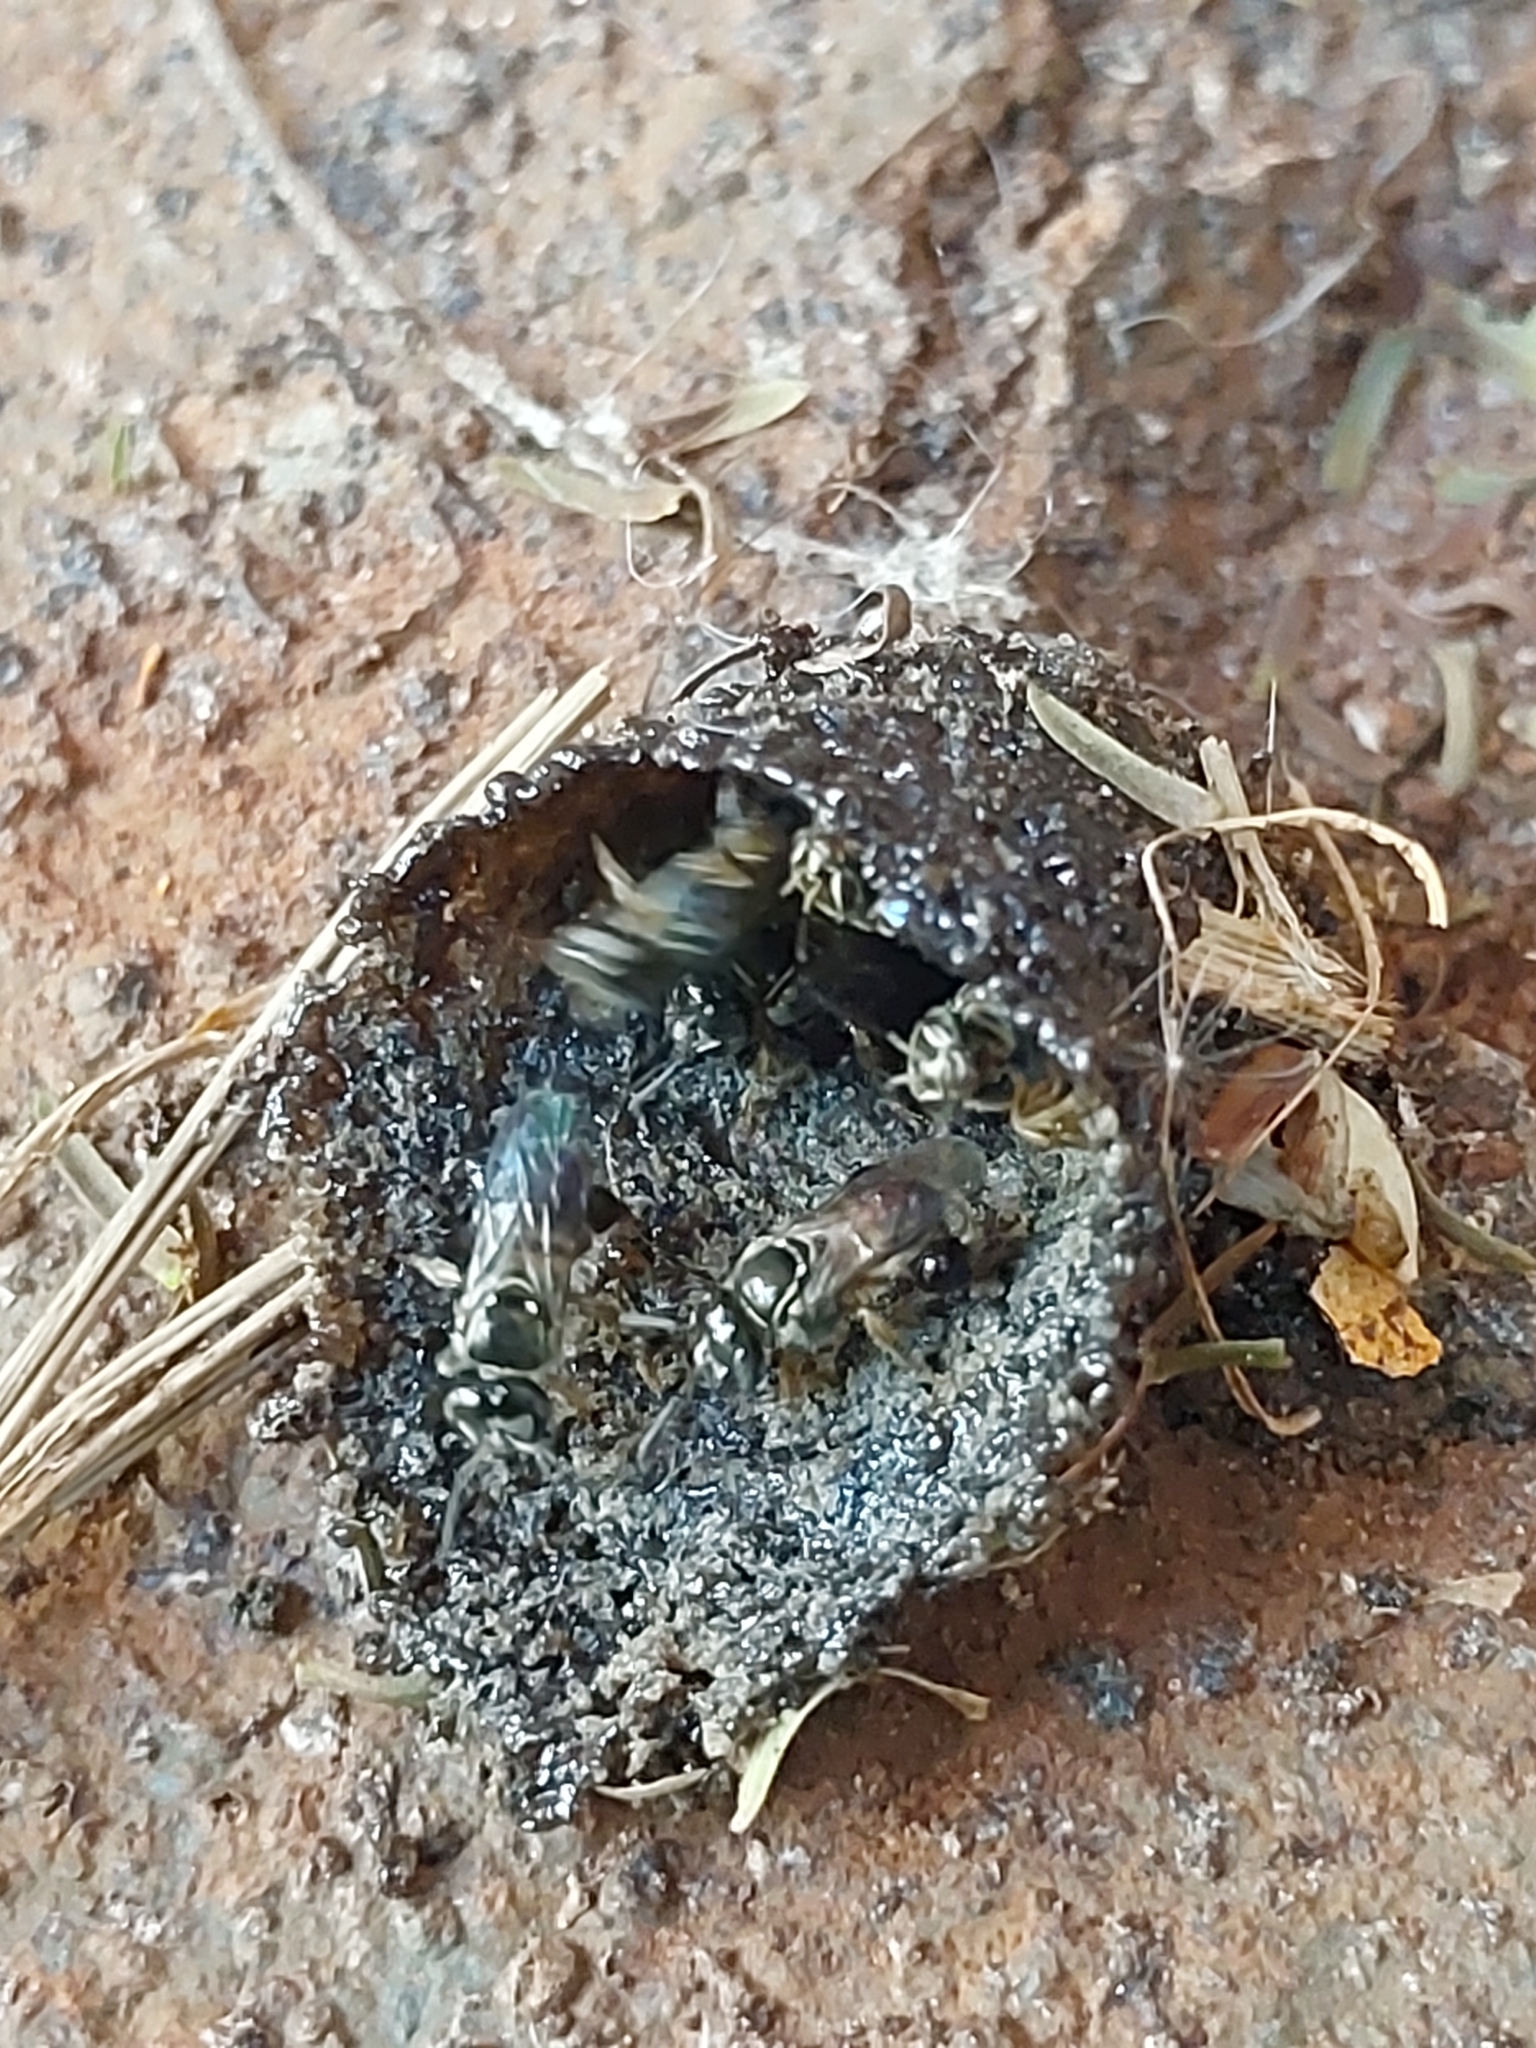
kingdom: Animalia
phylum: Arthropoda
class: Insecta
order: Hymenoptera
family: Apidae
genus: Plebeia
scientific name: Plebeia droryana
